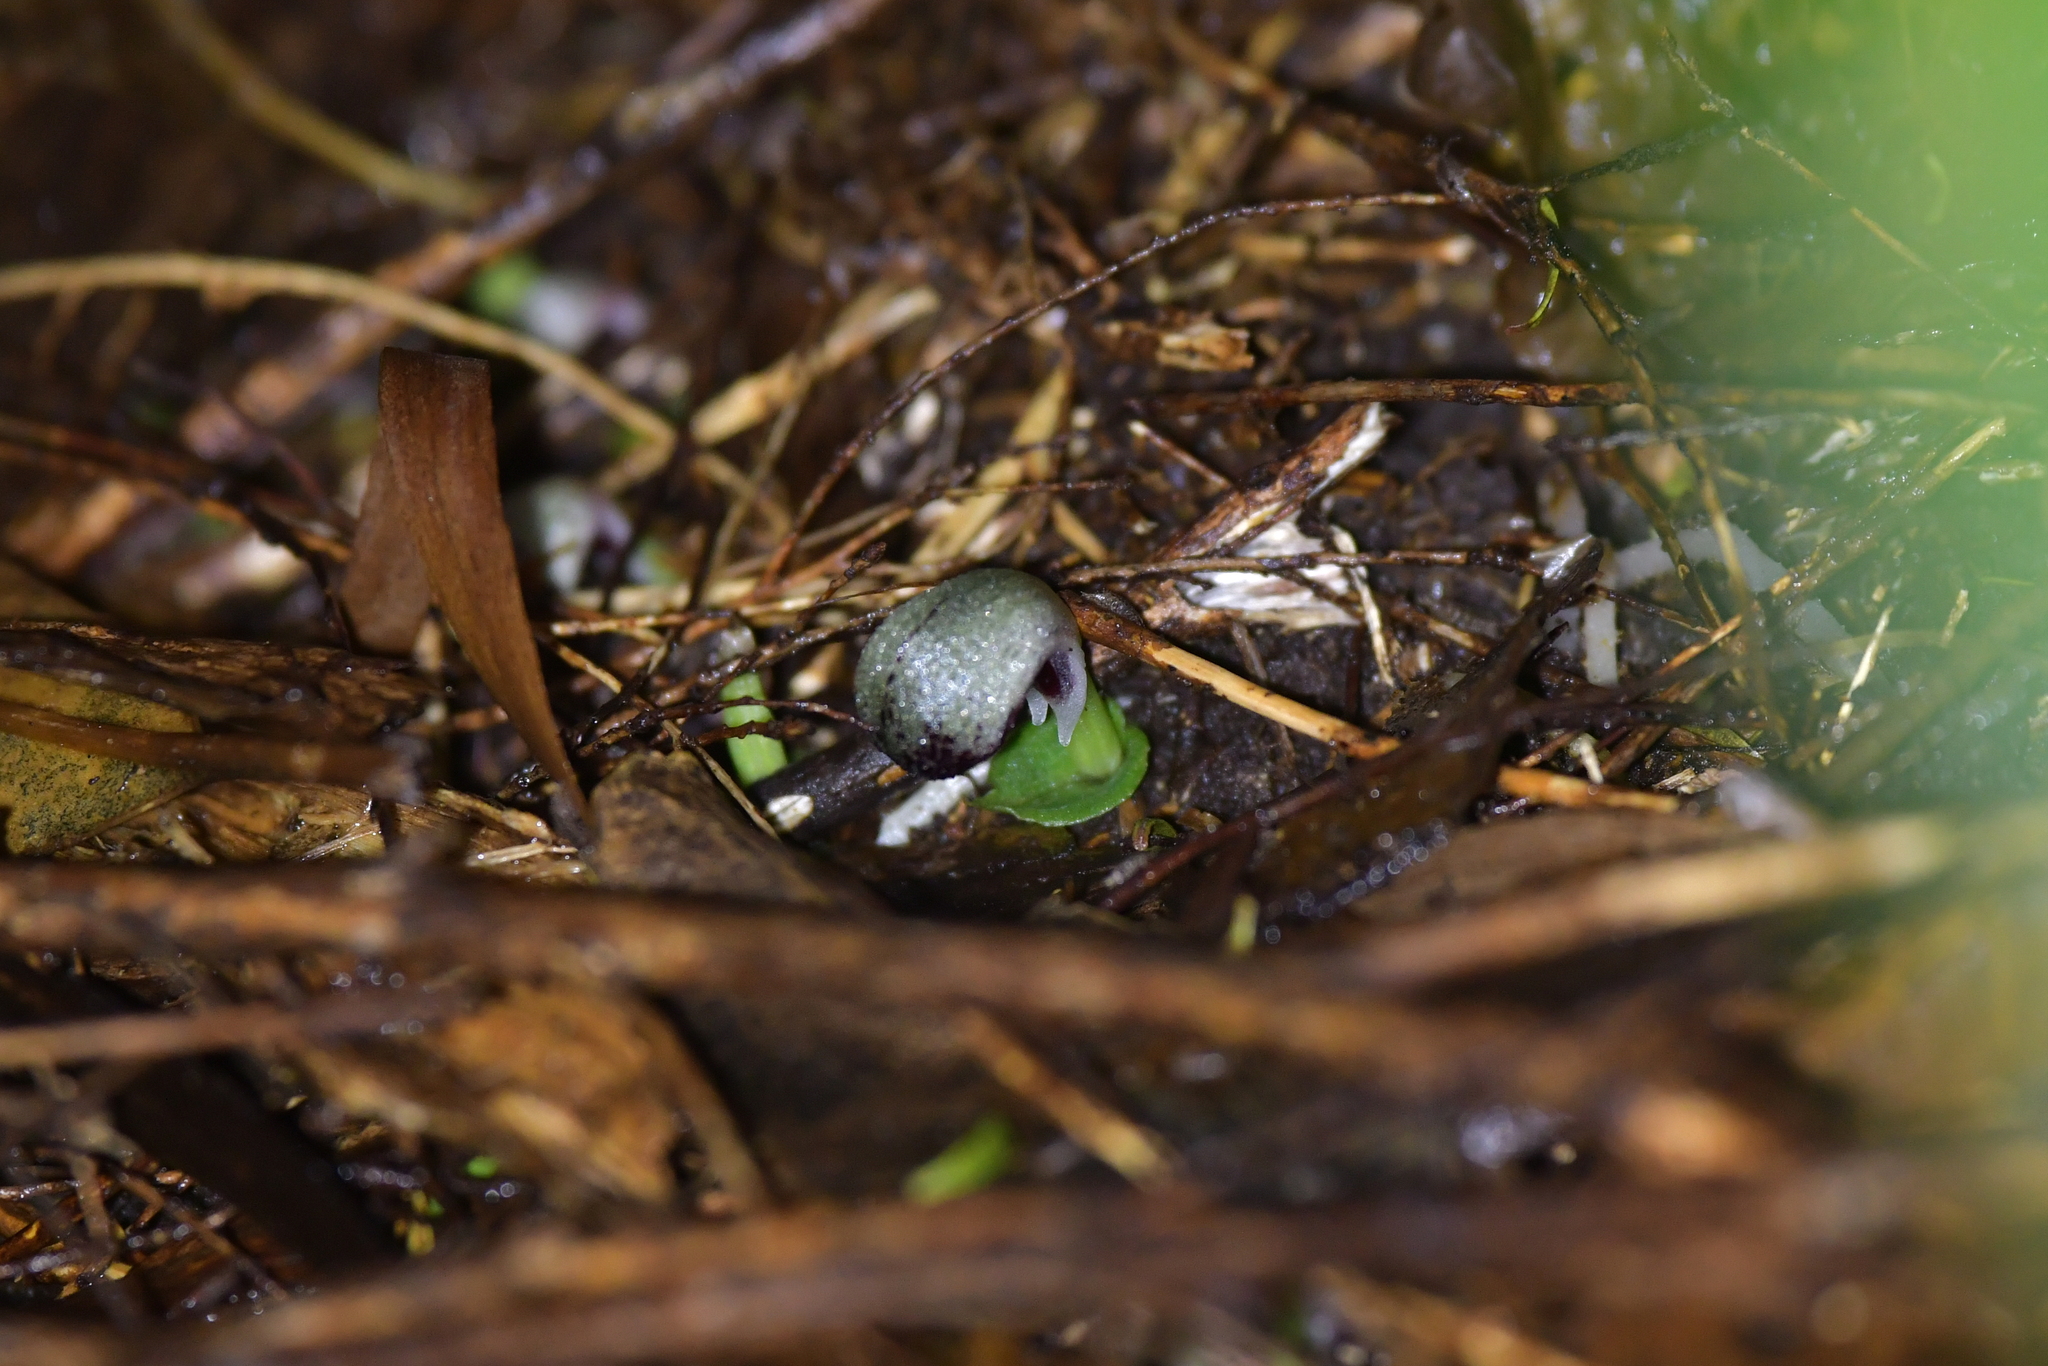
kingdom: Plantae
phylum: Tracheophyta
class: Liliopsida
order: Asparagales
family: Orchidaceae
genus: Corybas
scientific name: Corybas cheesemanii
